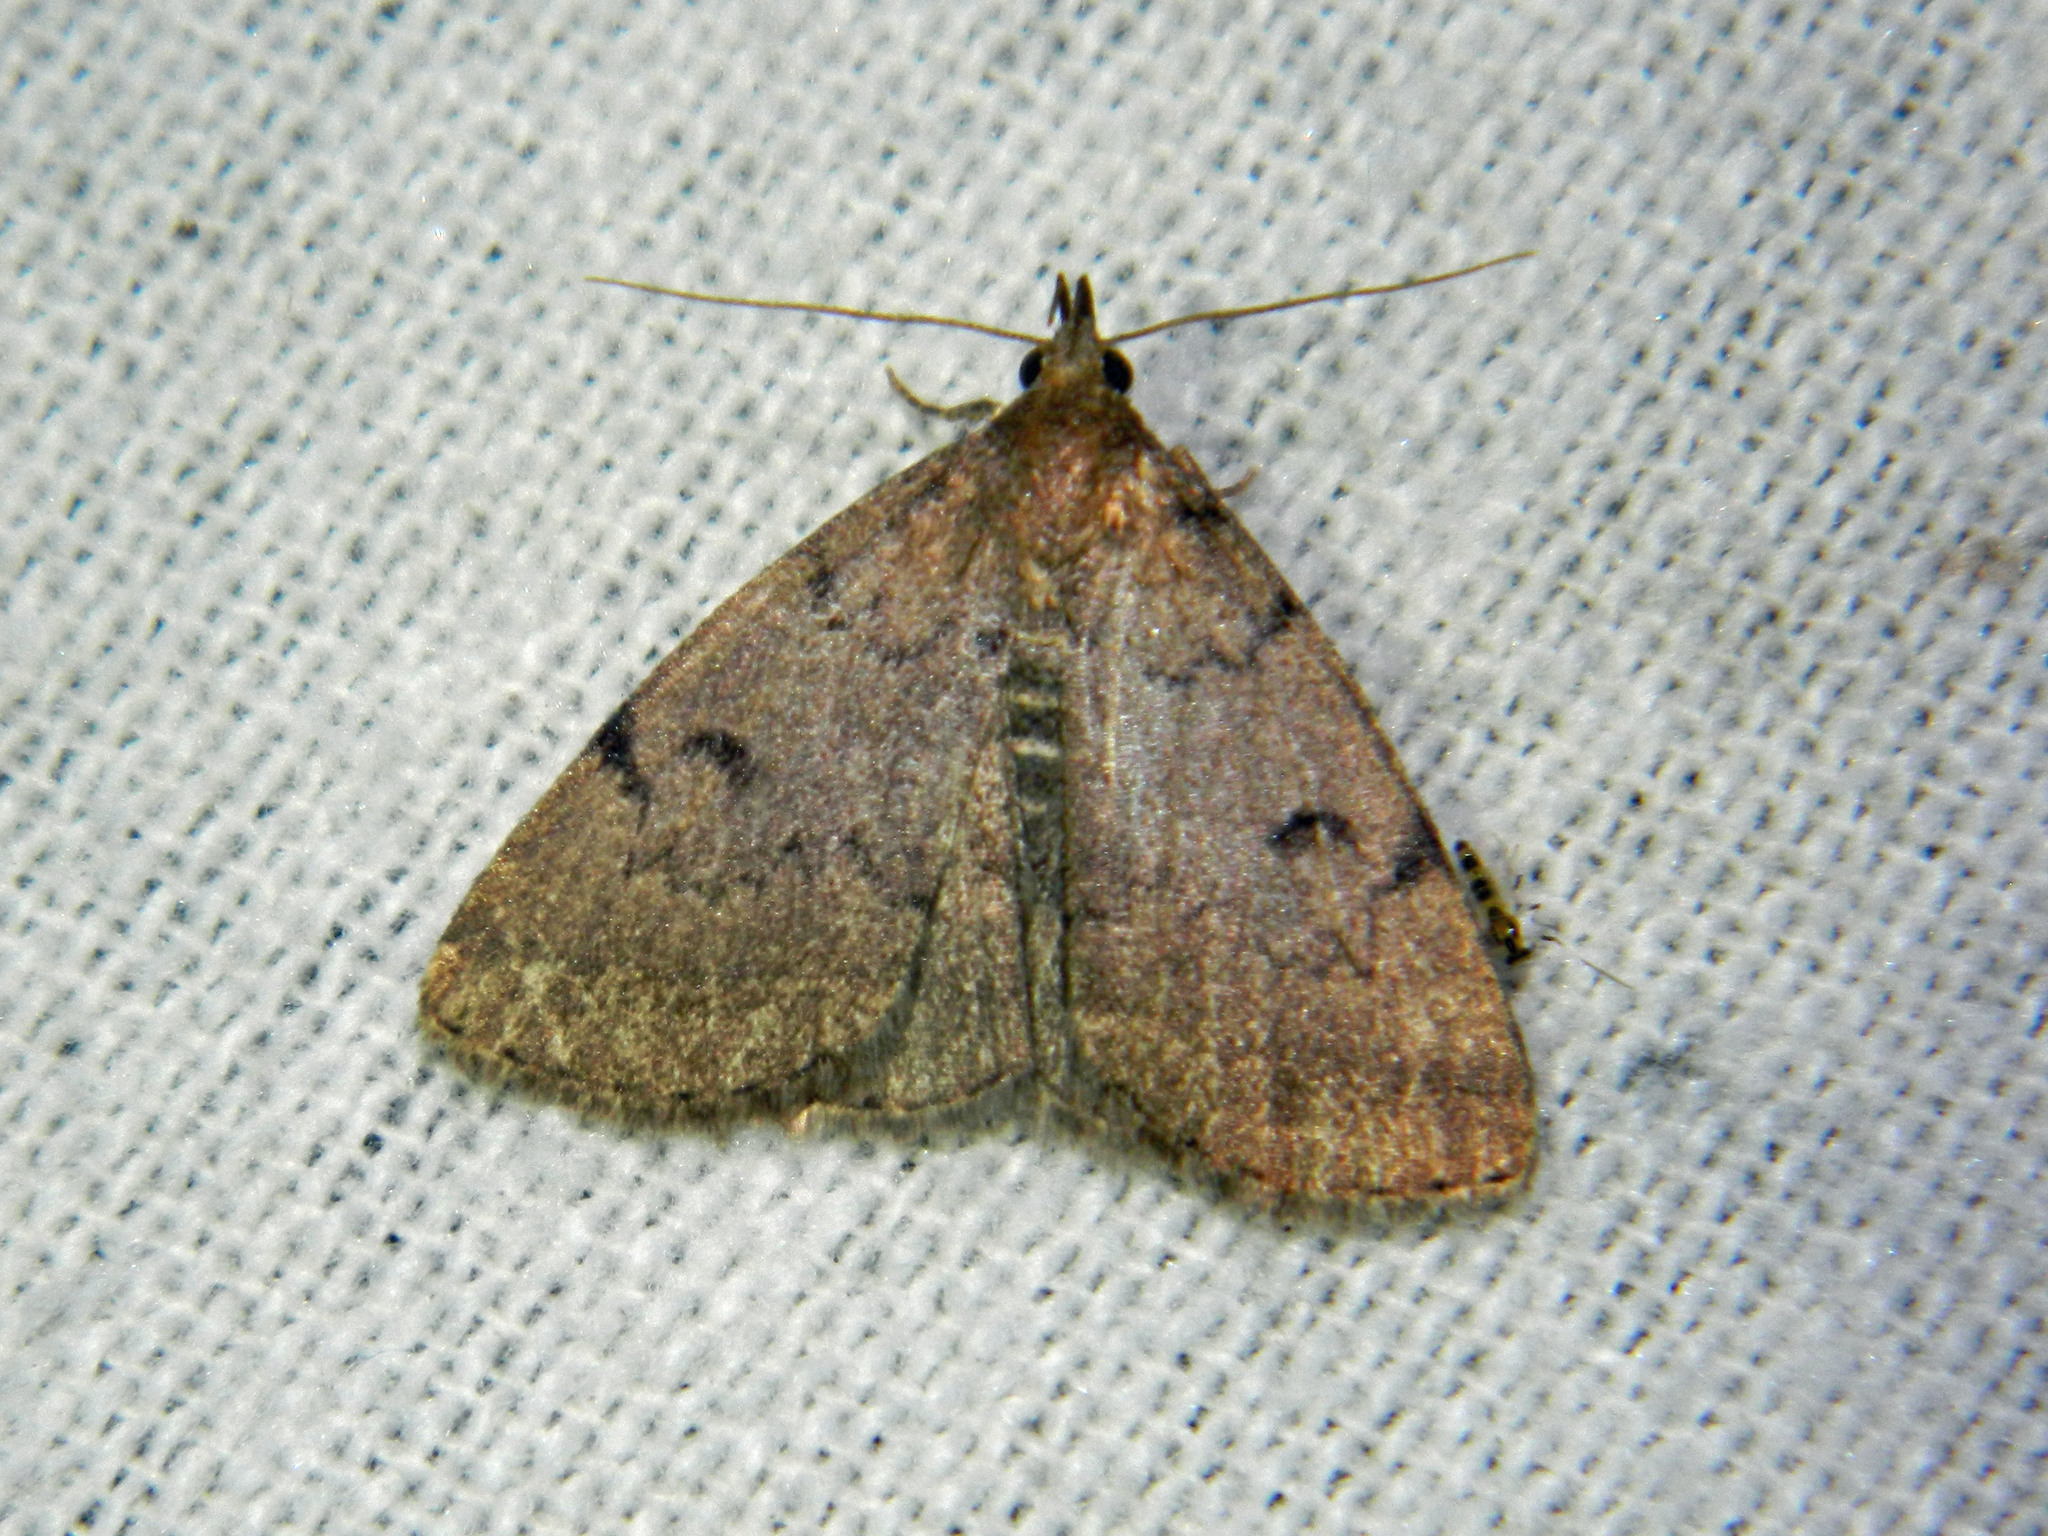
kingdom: Animalia
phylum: Arthropoda
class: Insecta
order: Lepidoptera
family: Erebidae
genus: Zanclognatha
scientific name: Zanclognatha dentata
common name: Toothed fan-foot
